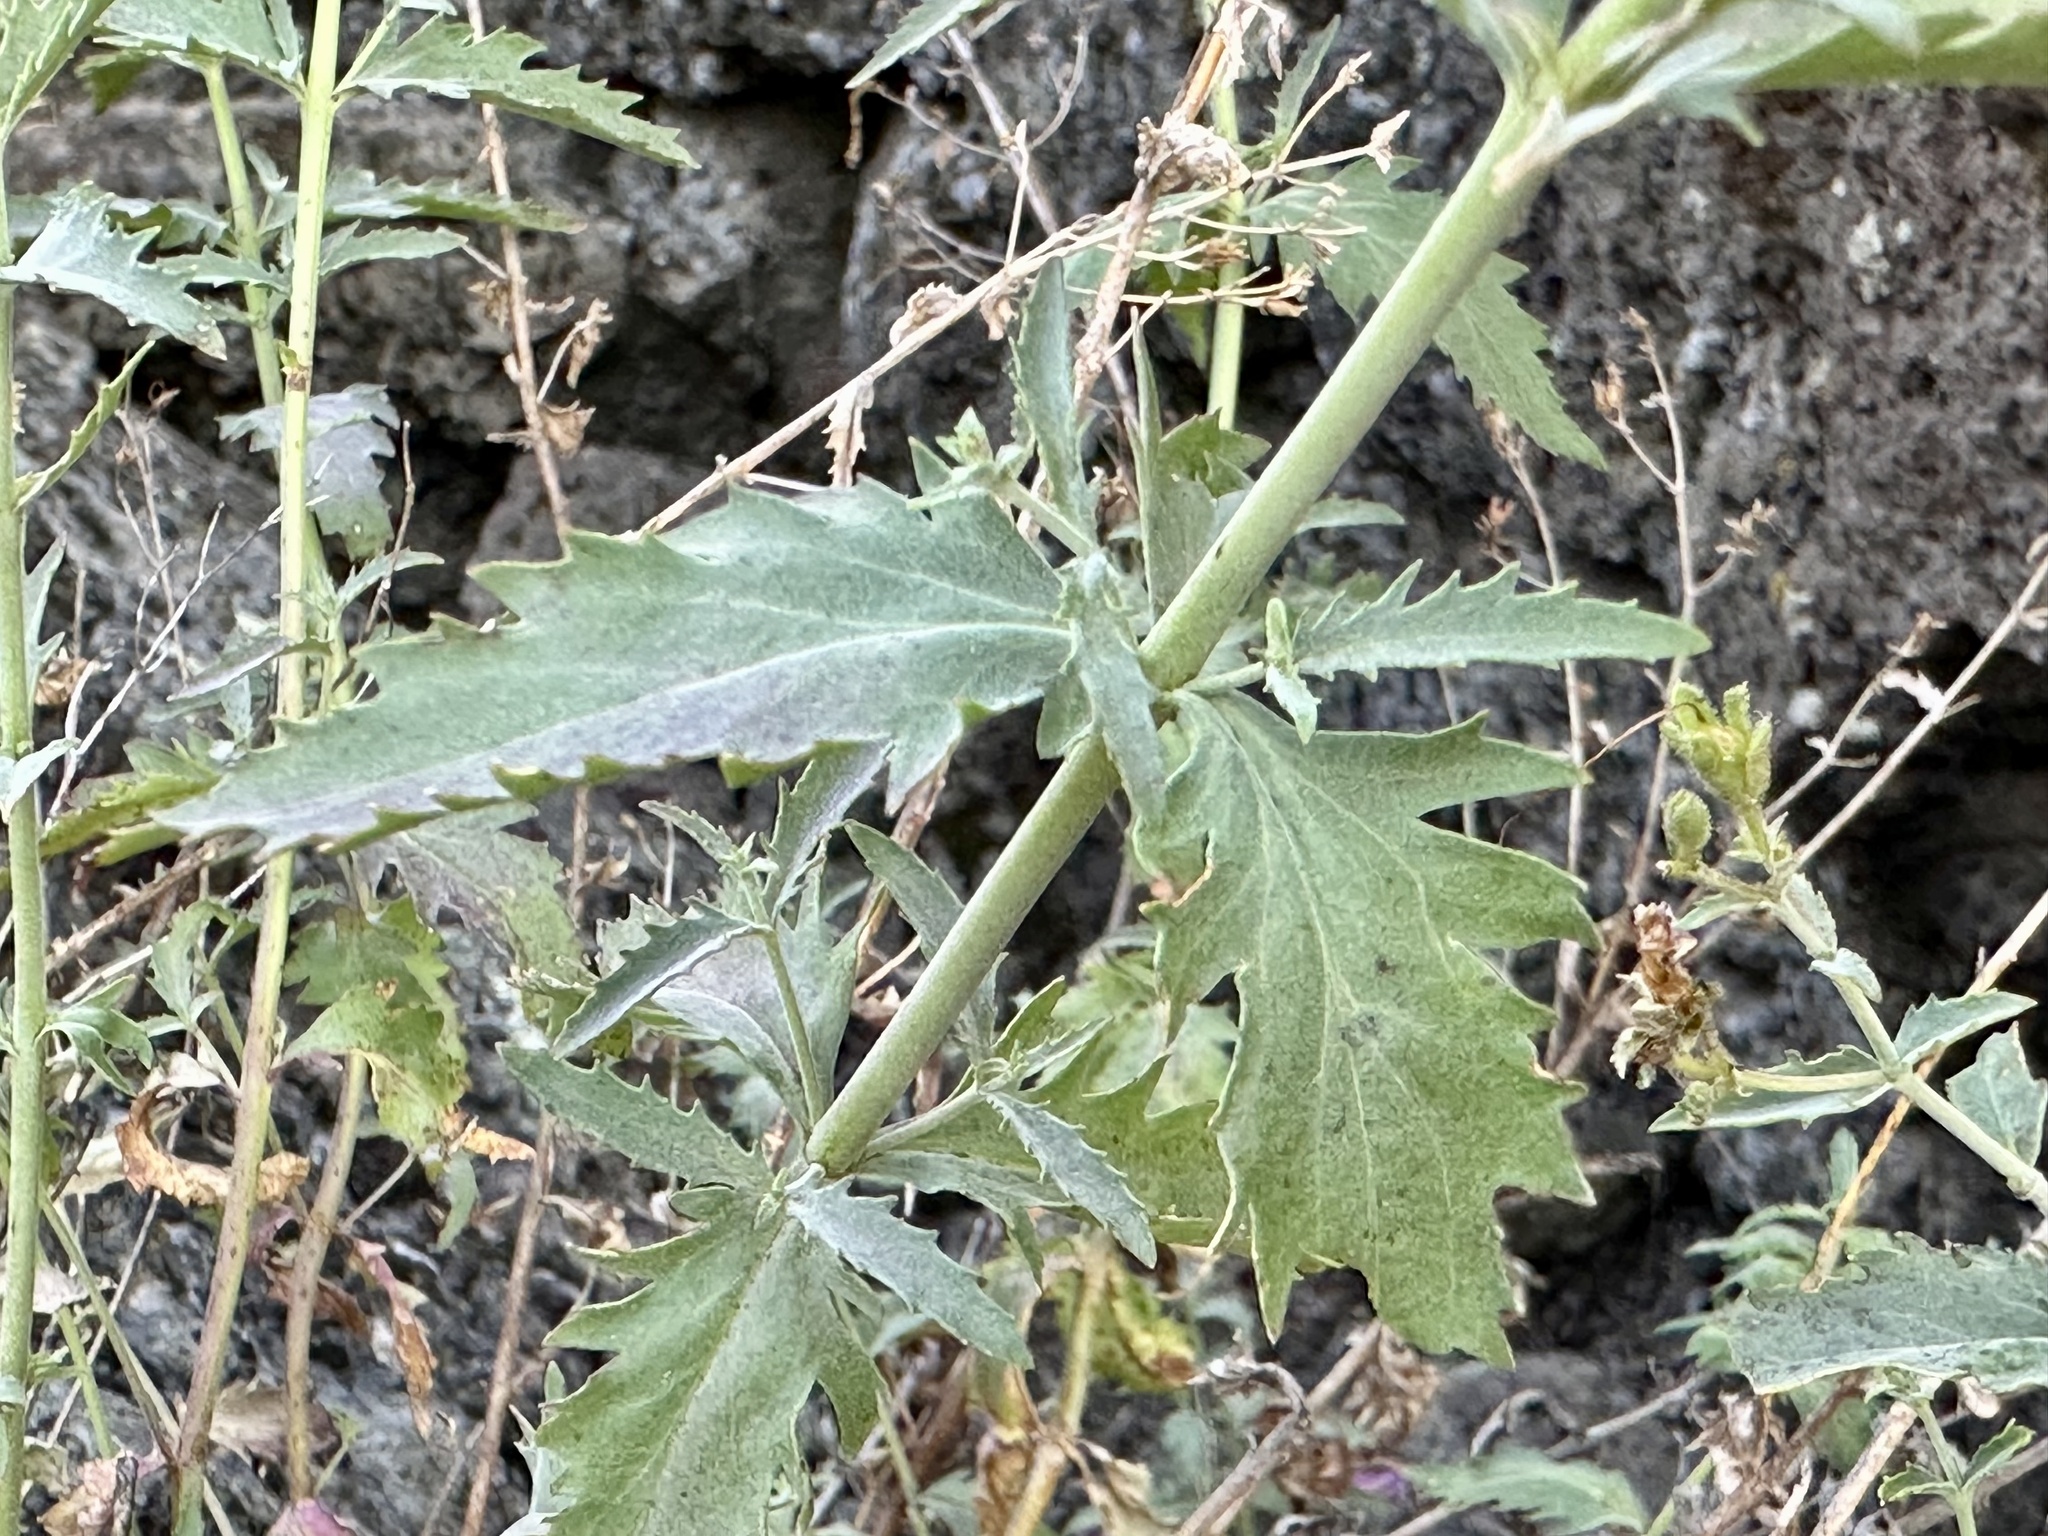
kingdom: Plantae
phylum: Tracheophyta
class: Magnoliopsida
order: Lamiales
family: Plantaginaceae
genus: Penstemon
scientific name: Penstemon richardsonii
